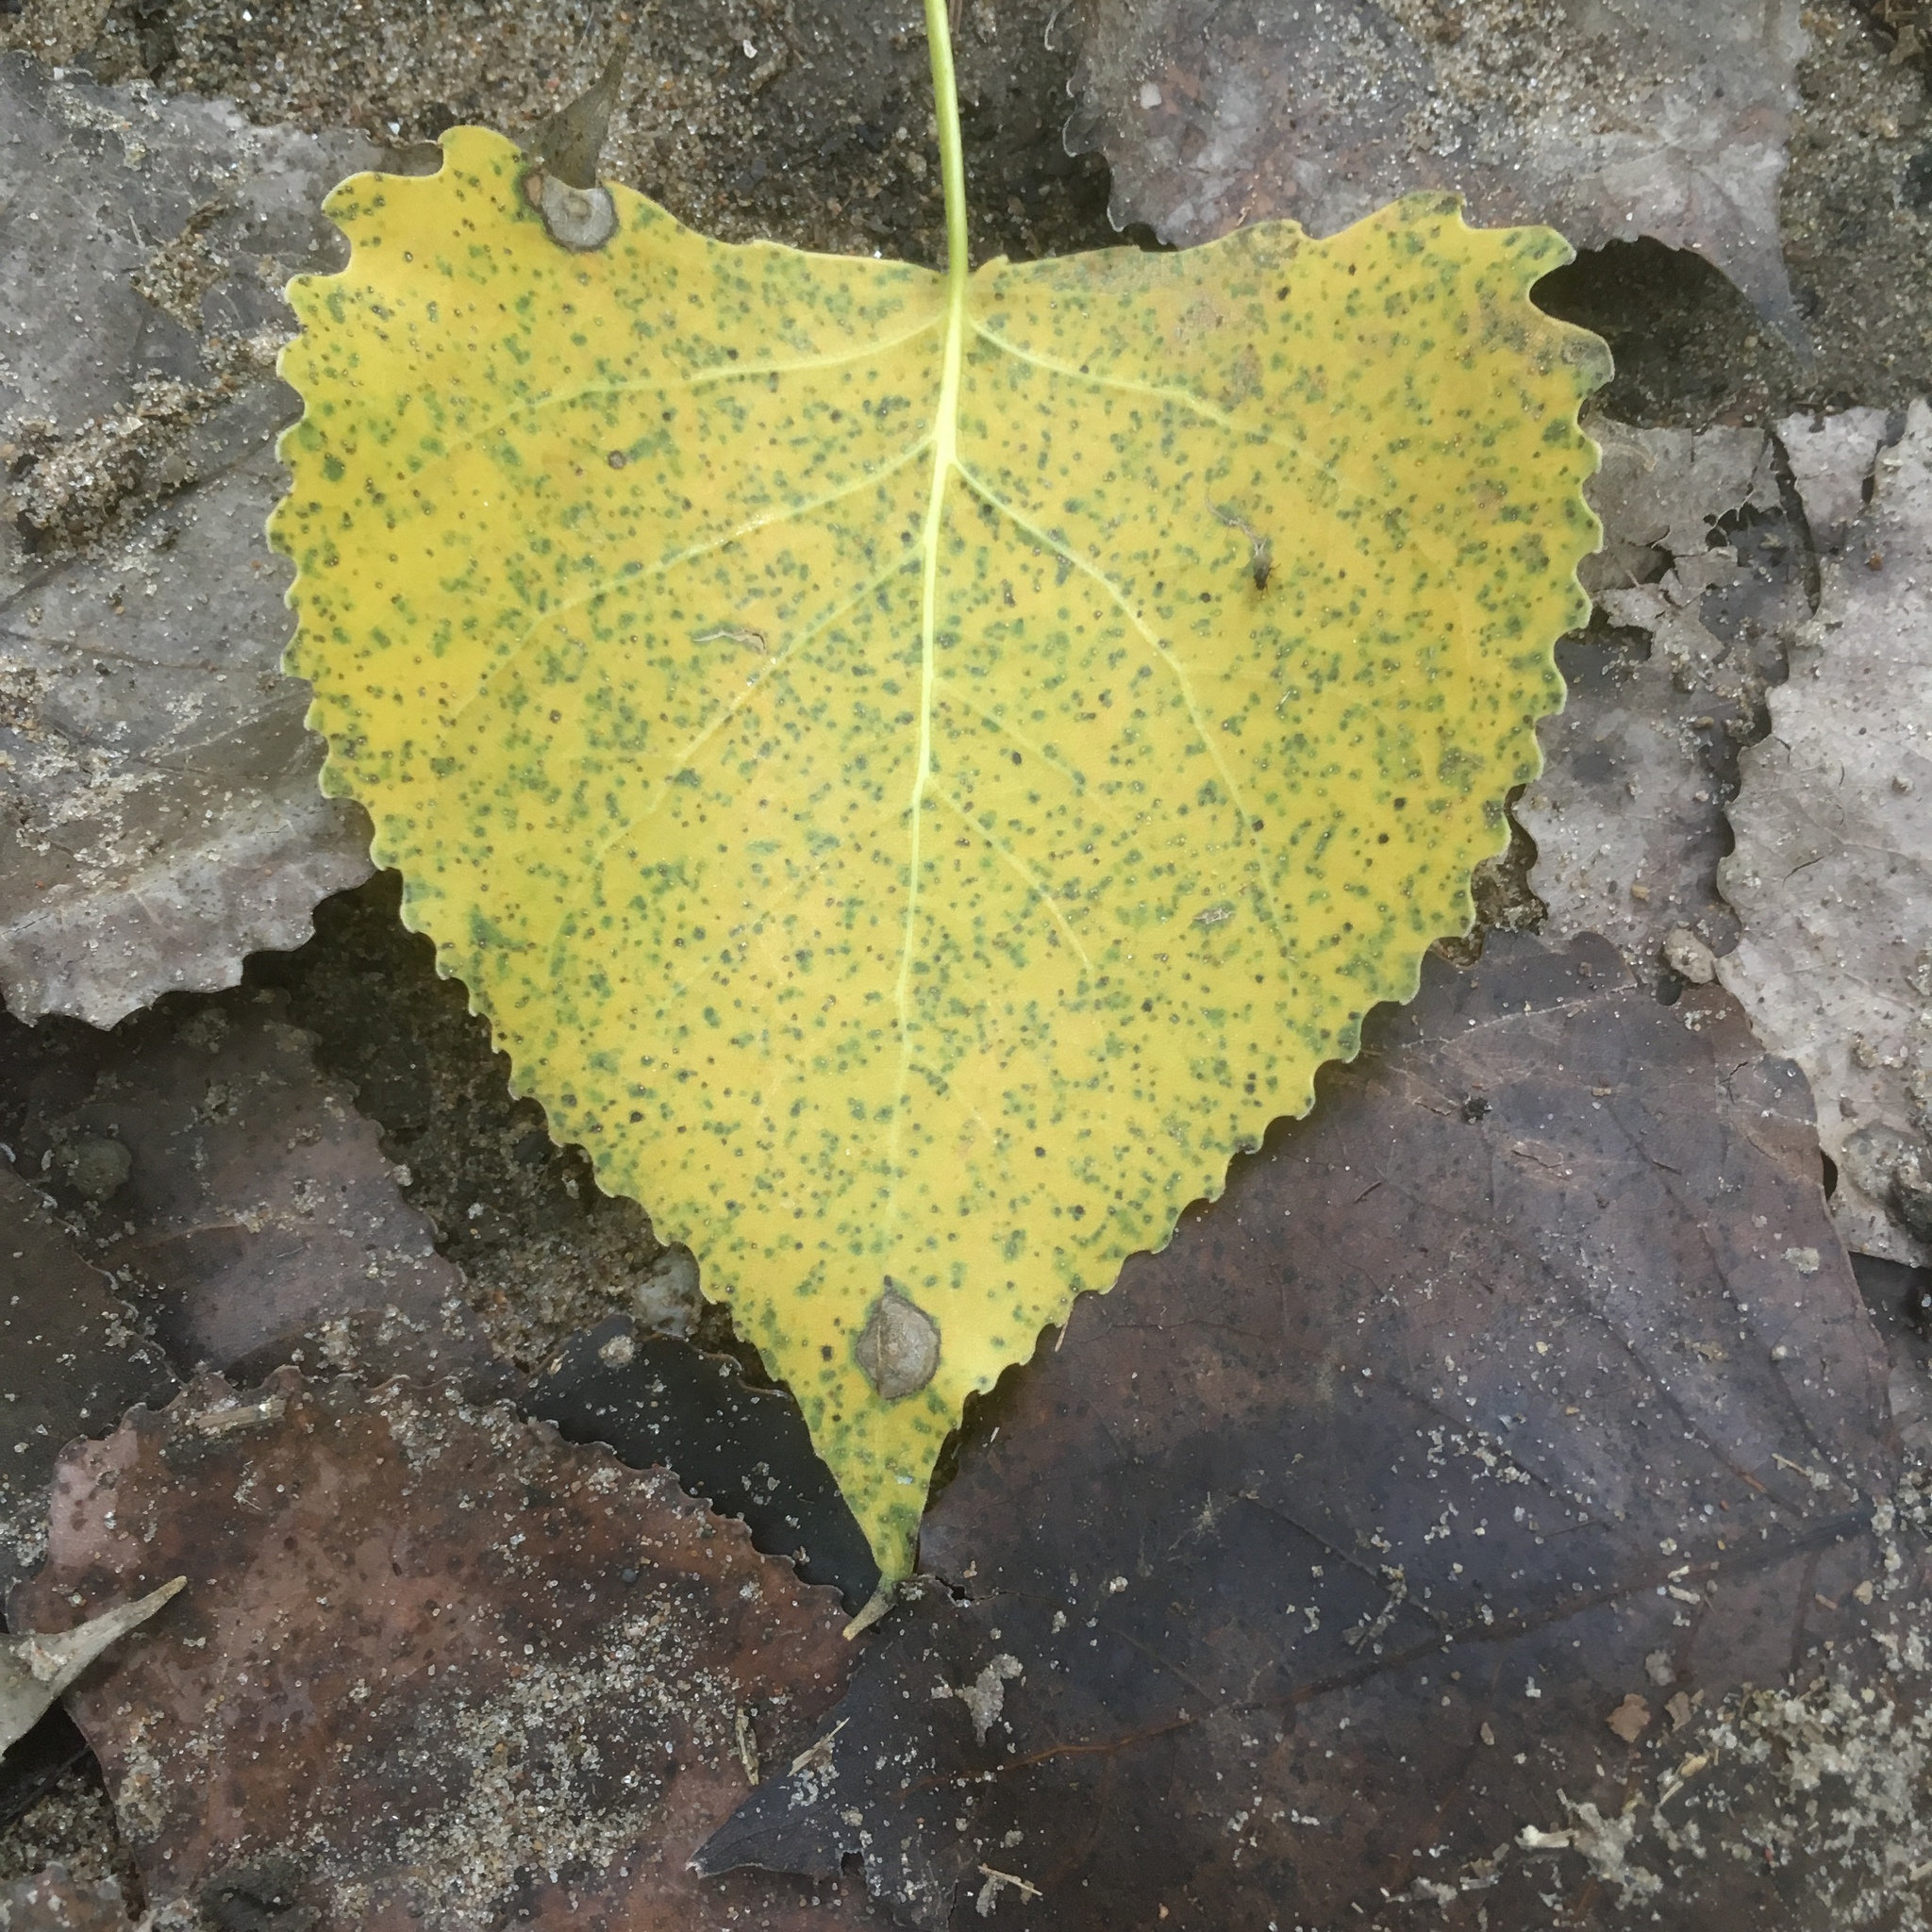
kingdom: Plantae
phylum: Tracheophyta
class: Magnoliopsida
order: Malpighiales
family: Salicaceae
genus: Populus
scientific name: Populus deltoides
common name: Eastern cottonwood
